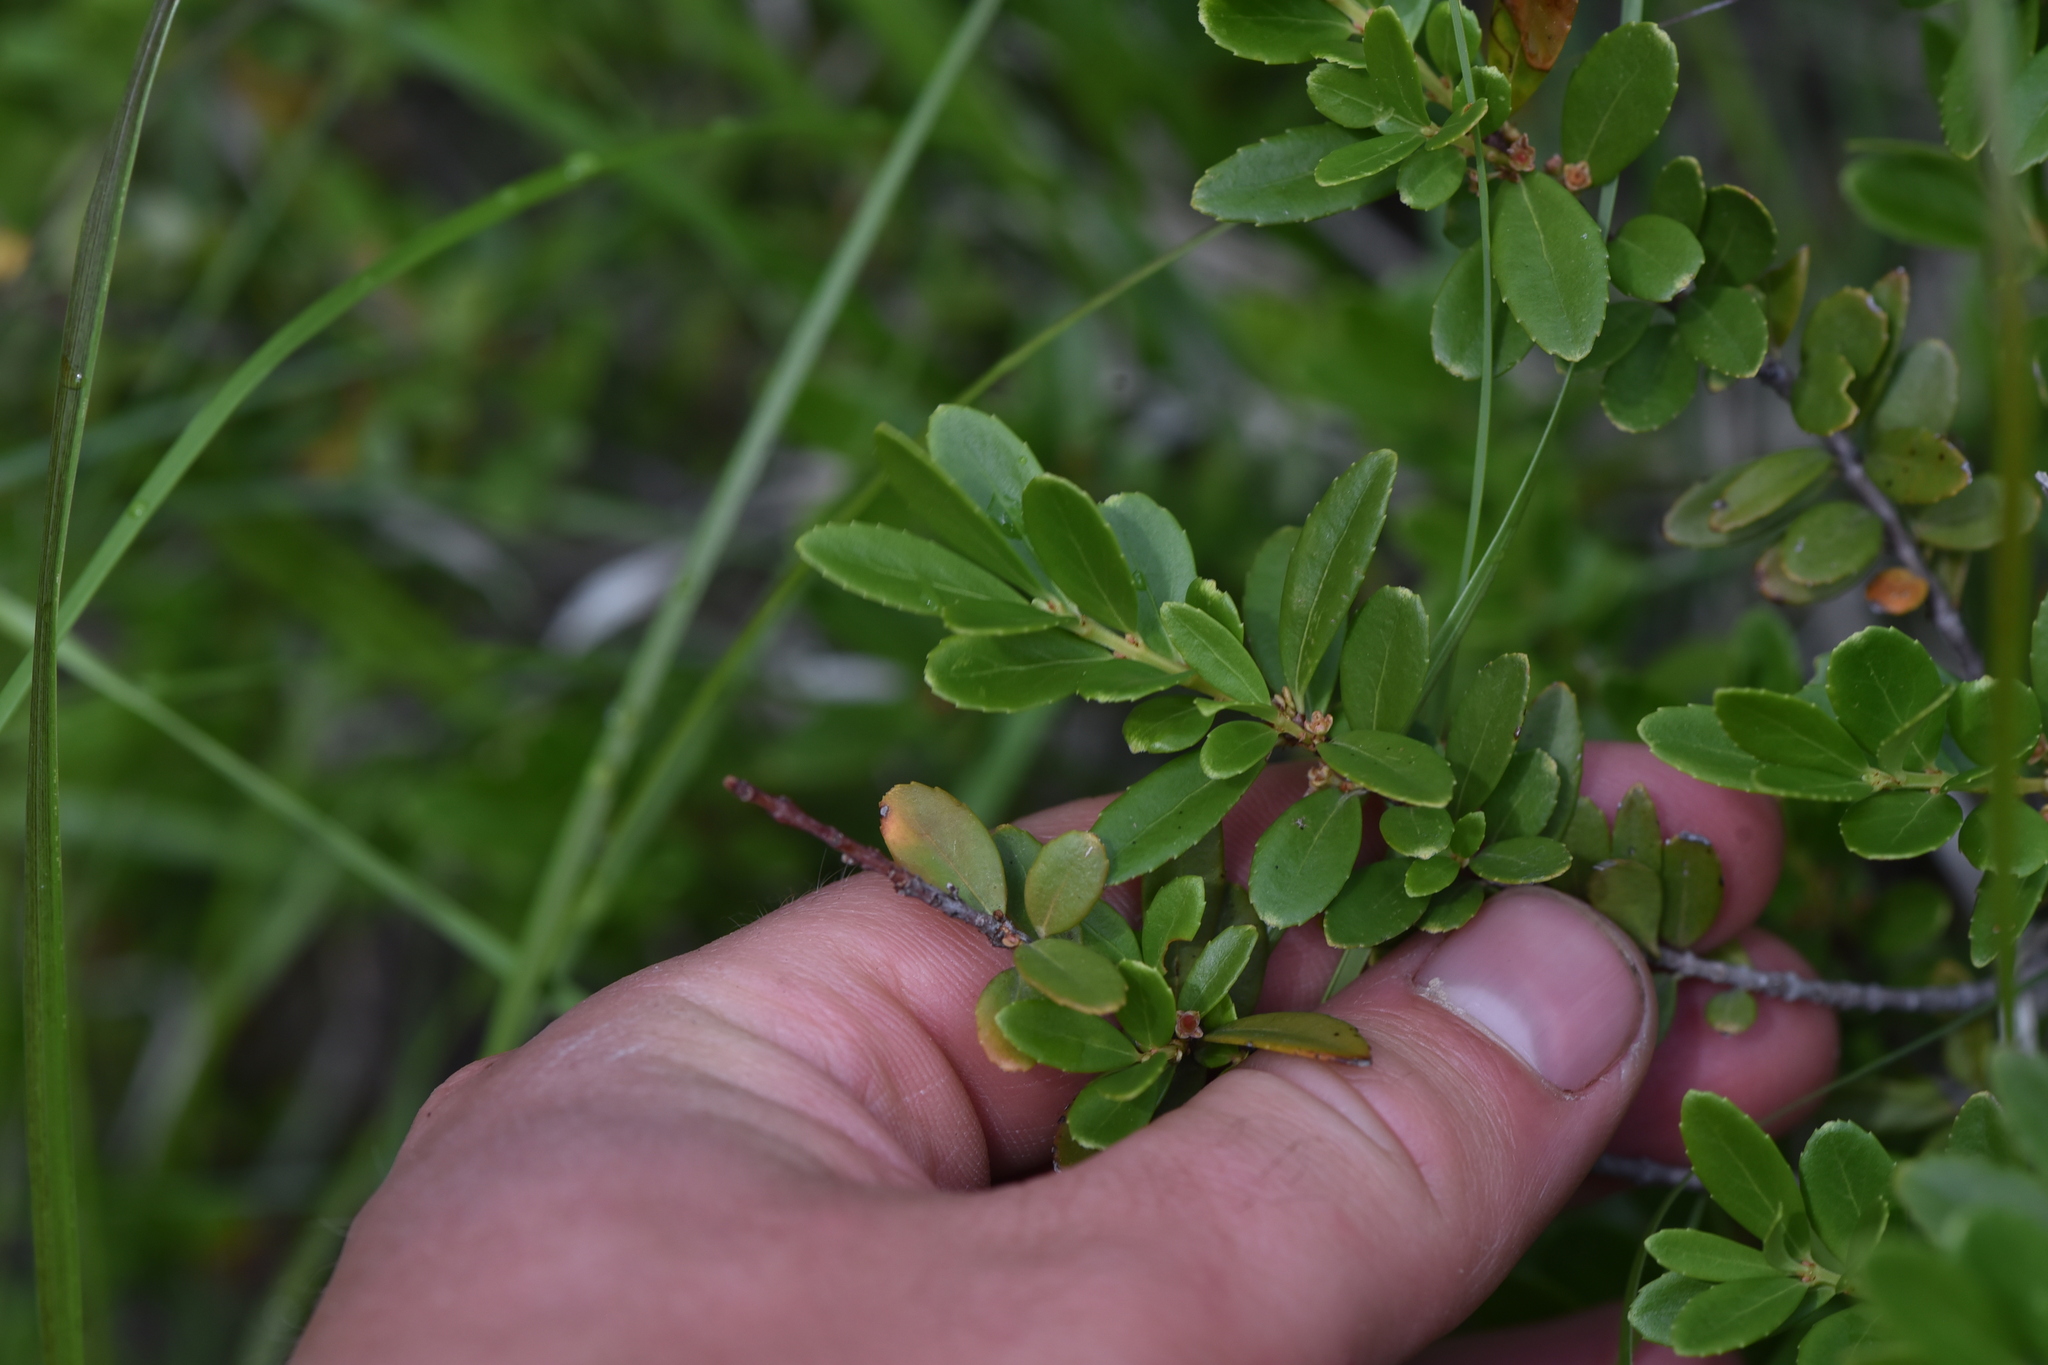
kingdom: Plantae
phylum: Tracheophyta
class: Magnoliopsida
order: Celastrales
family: Celastraceae
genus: Paxistima
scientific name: Paxistima myrsinites
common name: Mountain-lover
